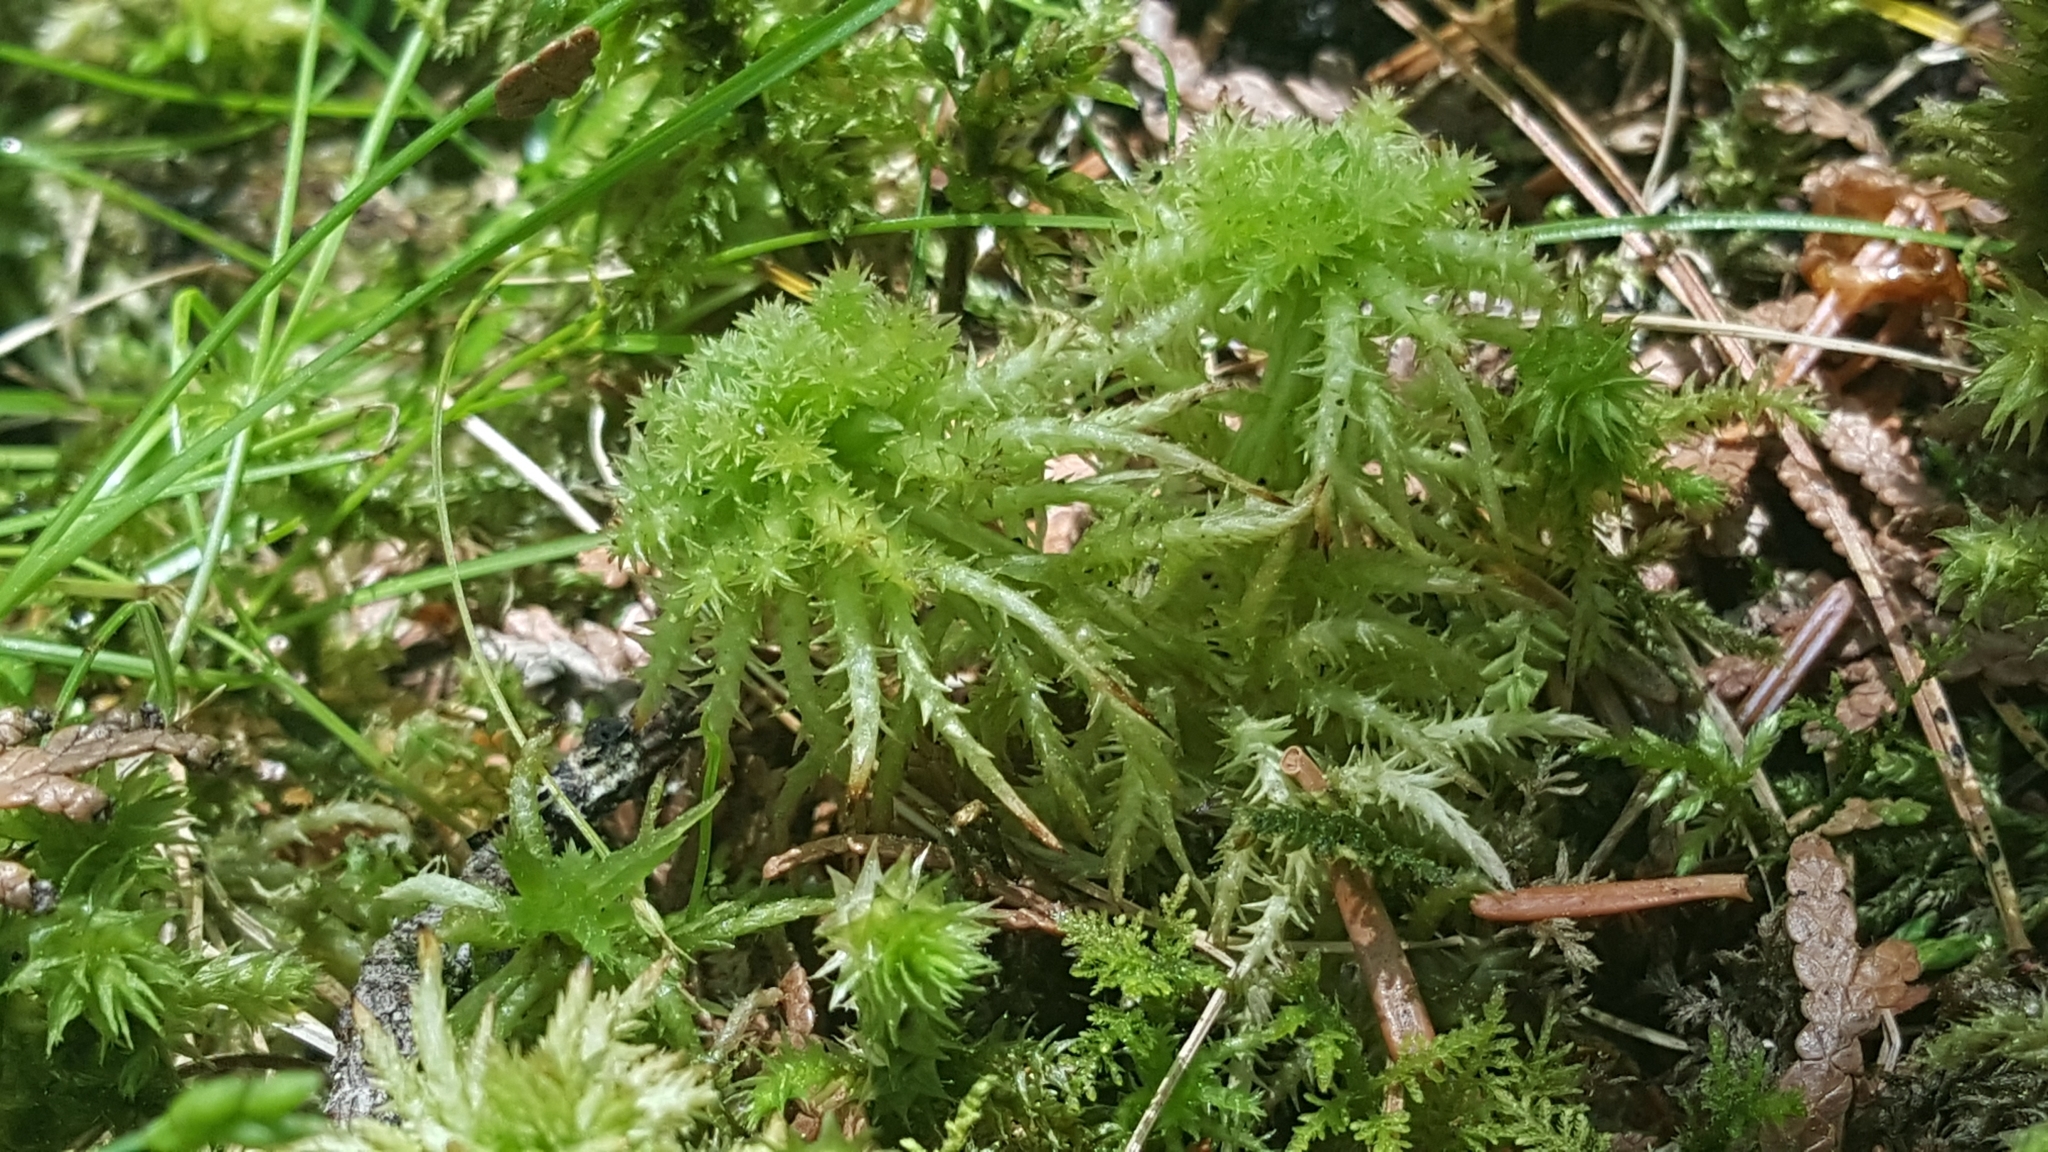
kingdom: Plantae
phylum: Bryophyta
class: Sphagnopsida
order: Sphagnales
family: Sphagnaceae
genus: Sphagnum
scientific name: Sphagnum squarrosum
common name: Shaggy peat moss
